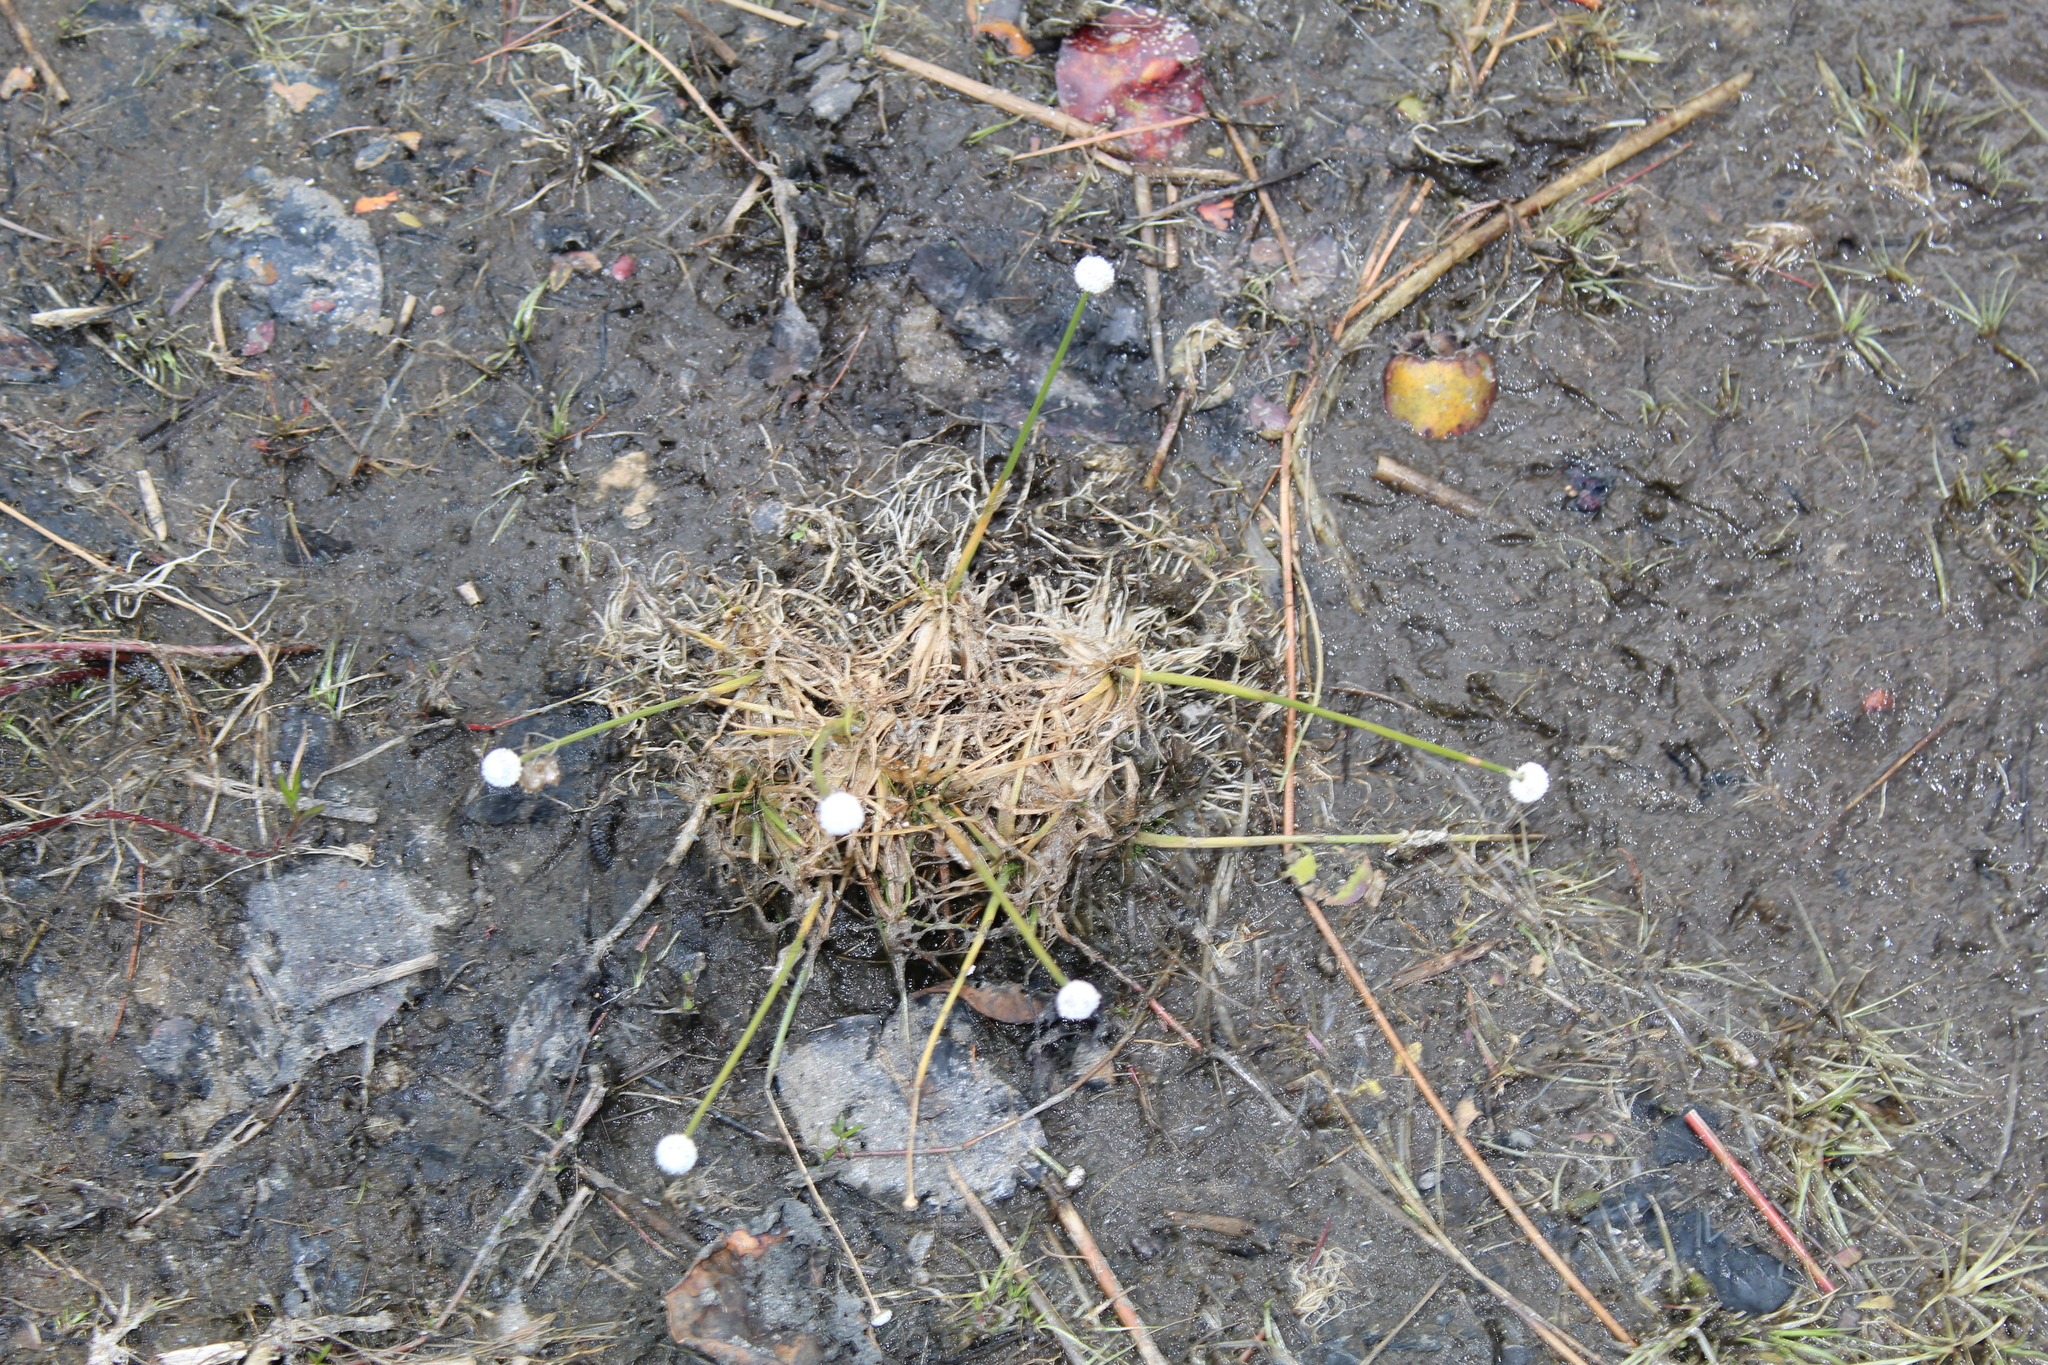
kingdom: Plantae
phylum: Tracheophyta
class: Liliopsida
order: Poales
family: Eriocaulaceae
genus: Eriocaulon
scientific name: Eriocaulon aquaticum
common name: Pipewort
